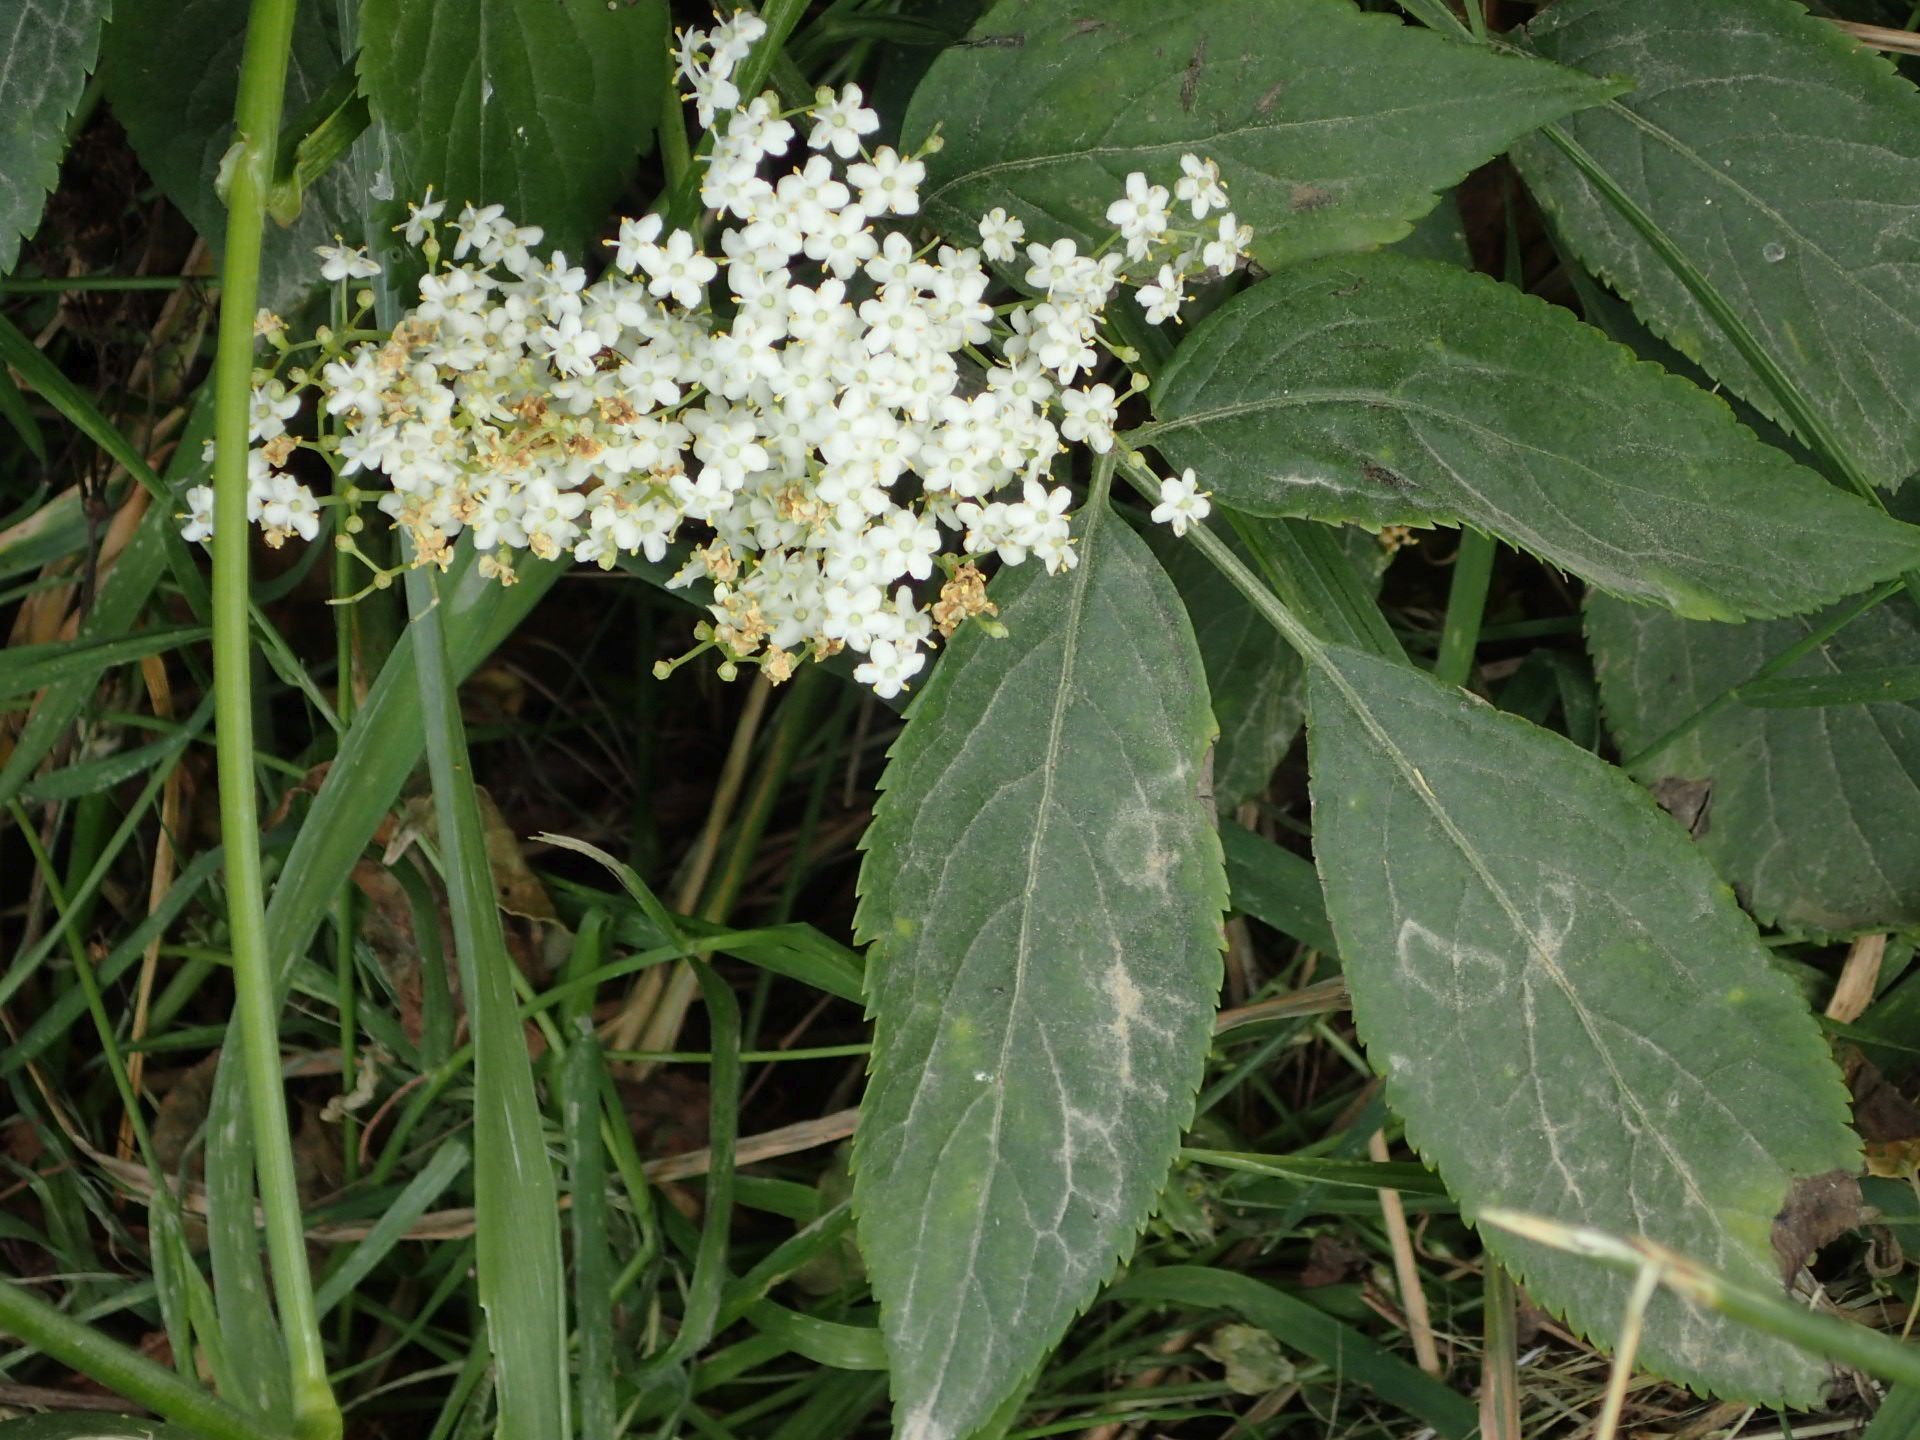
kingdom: Plantae
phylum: Tracheophyta
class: Magnoliopsida
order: Dipsacales
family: Viburnaceae
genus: Sambucus
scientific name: Sambucus nigra
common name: Elder
